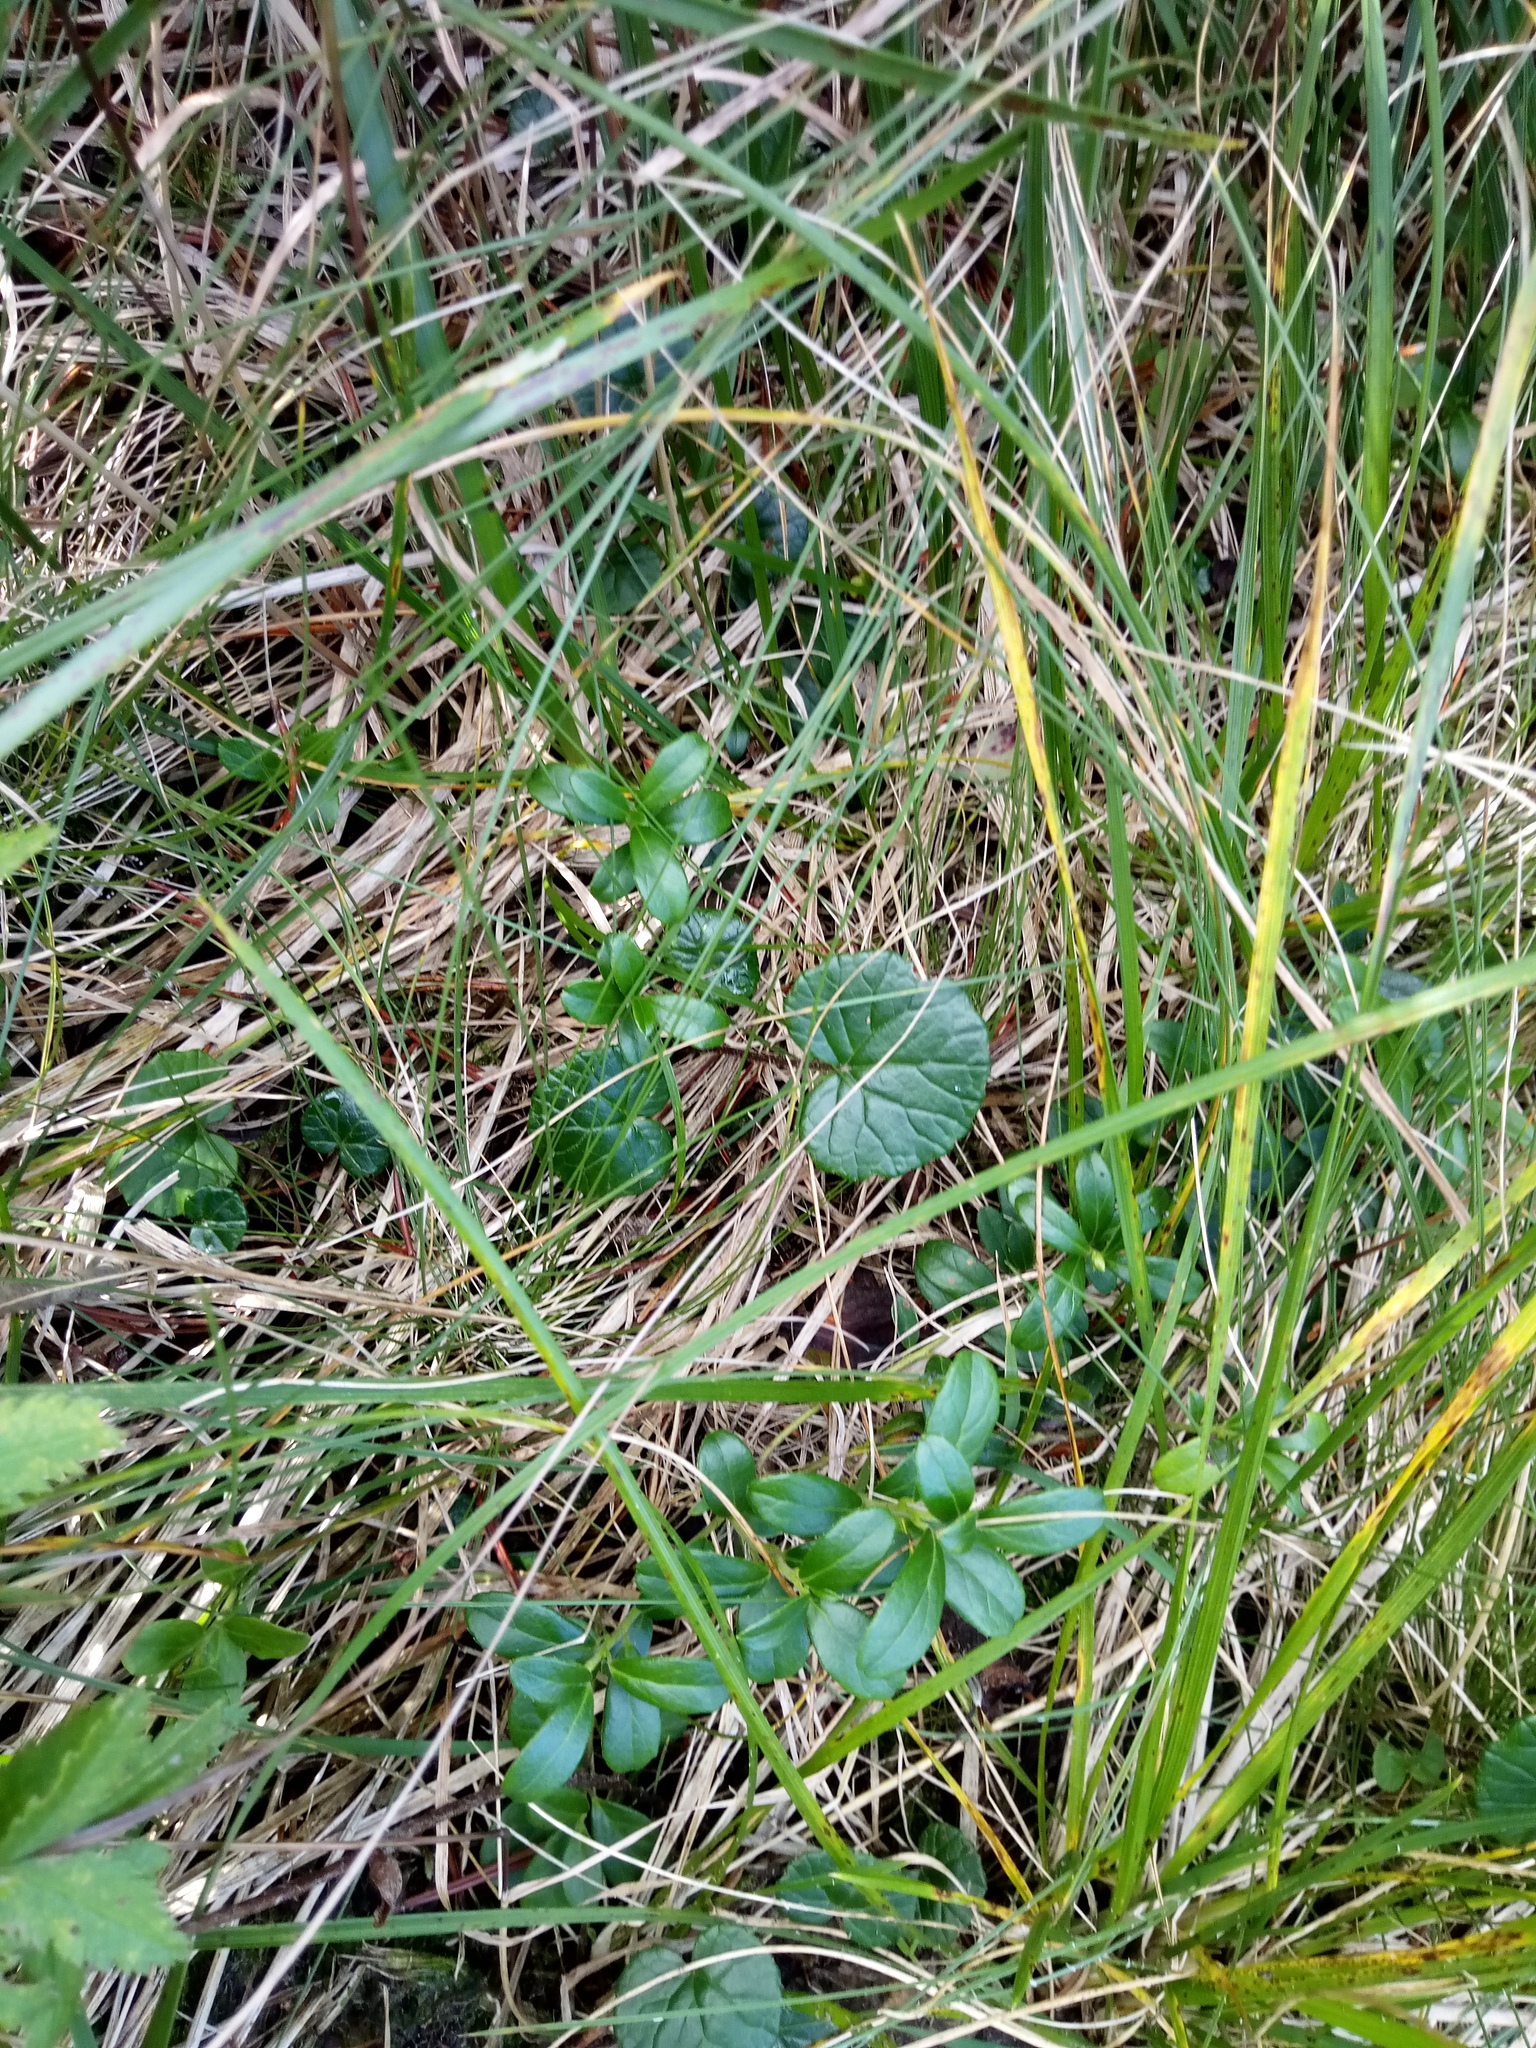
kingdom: Plantae
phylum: Tracheophyta
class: Magnoliopsida
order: Asterales
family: Asteraceae
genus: Homogyne
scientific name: Homogyne alpina
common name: Purple colt's-foot
